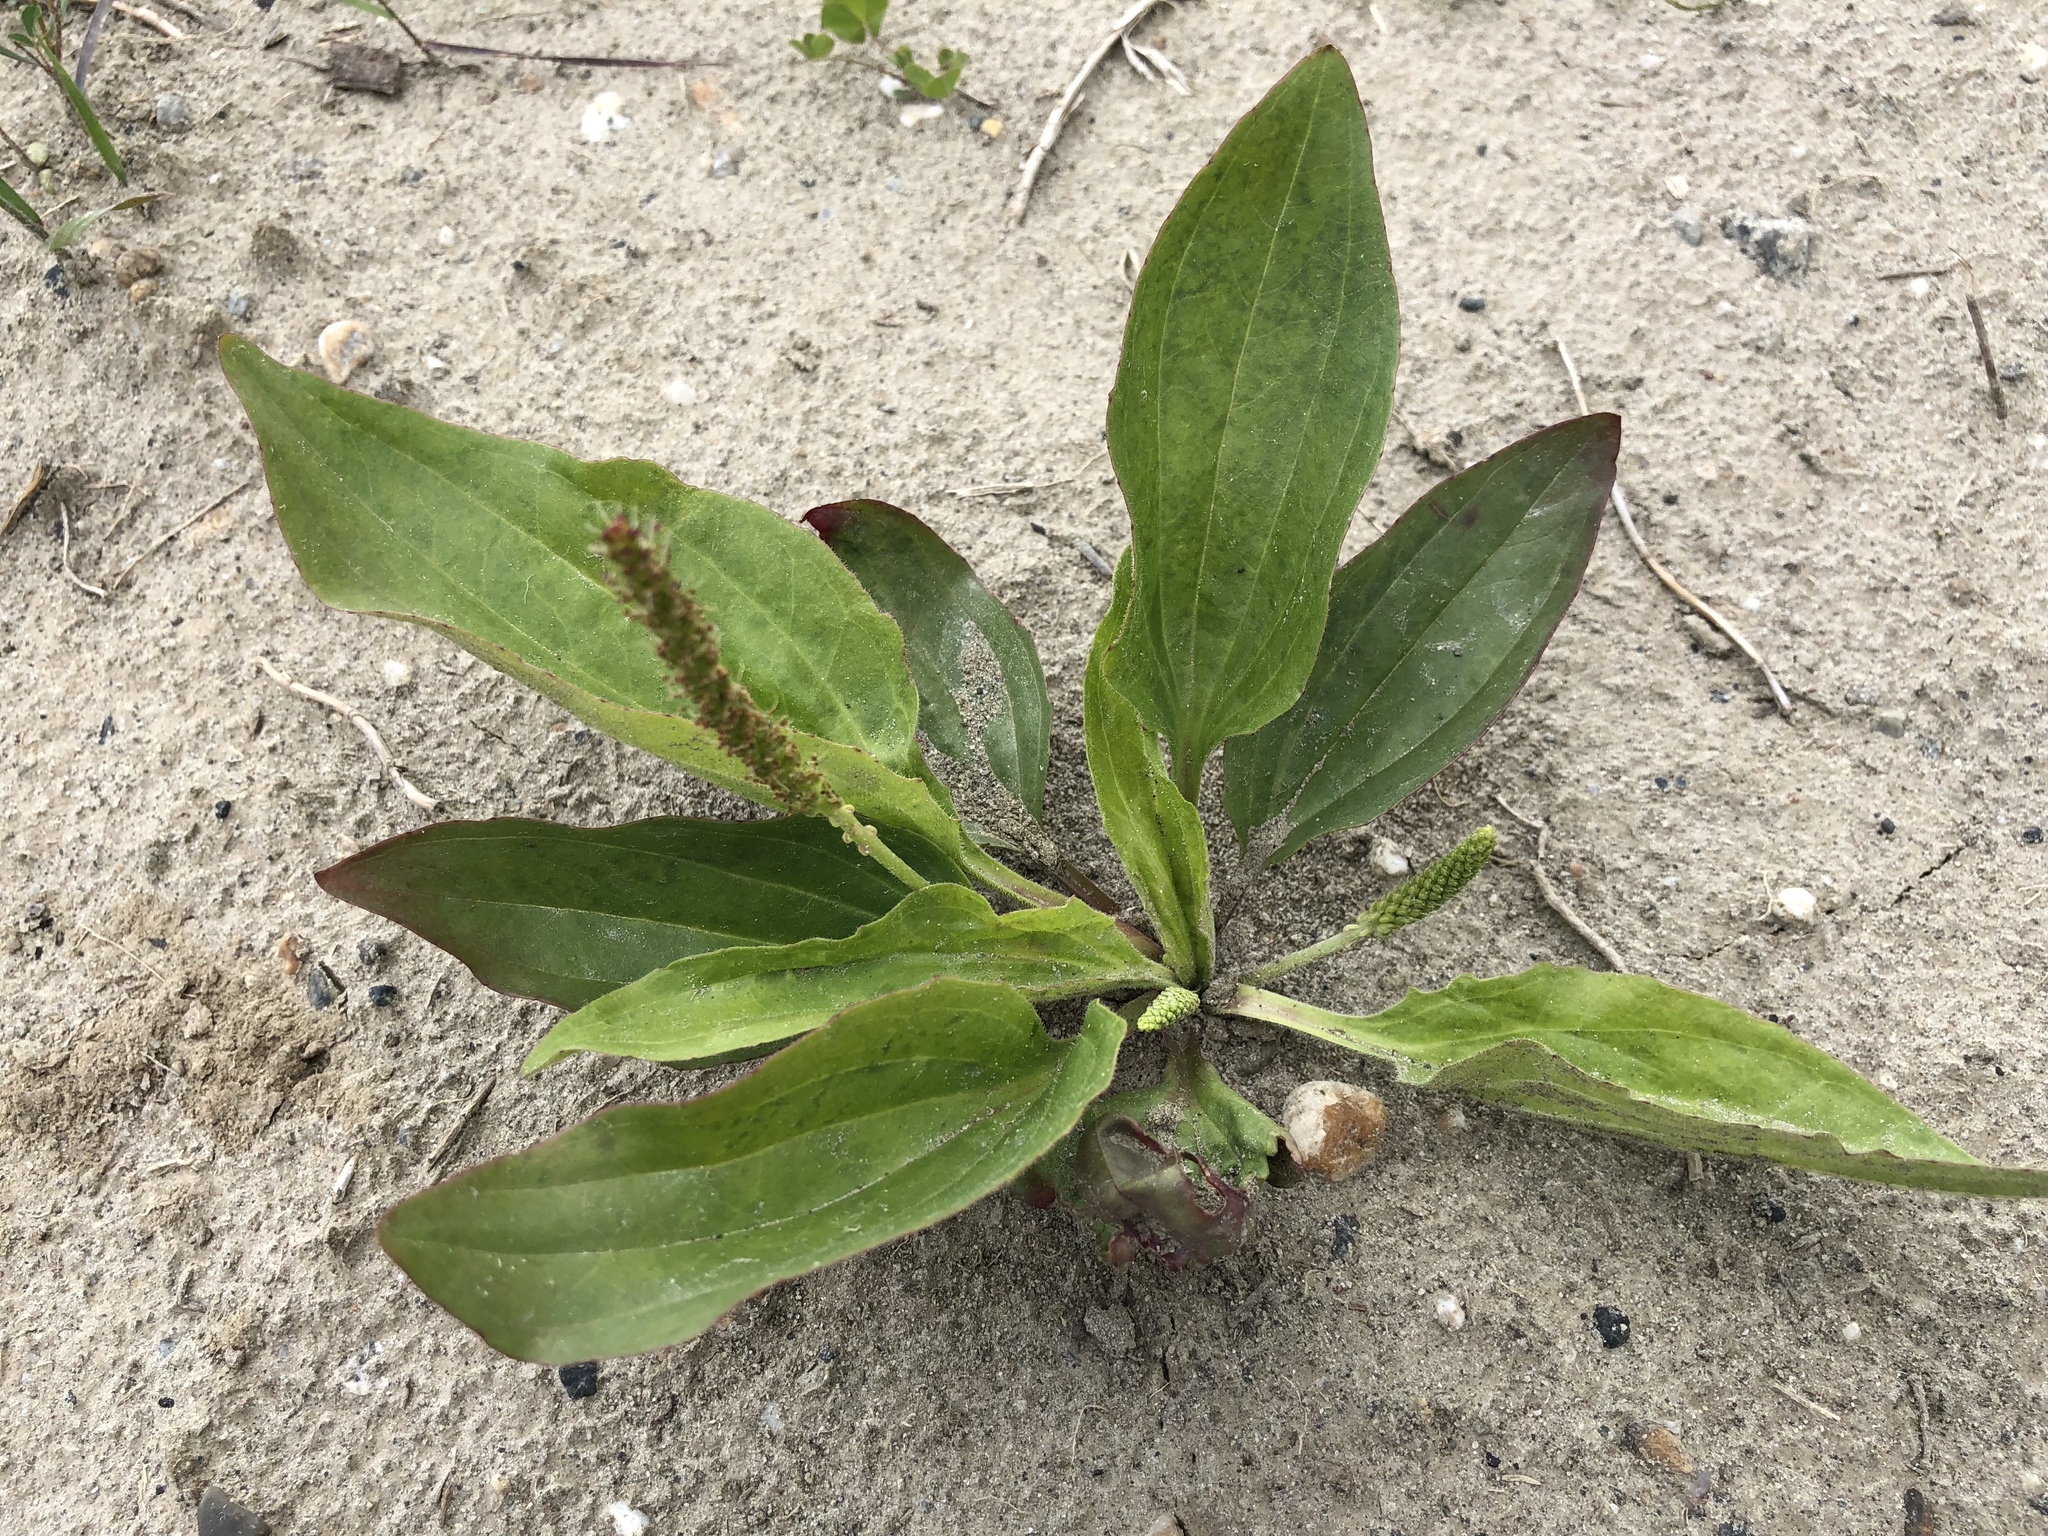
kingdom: Plantae
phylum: Tracheophyta
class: Magnoliopsida
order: Lamiales
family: Plantaginaceae
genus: Plantago
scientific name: Plantago major
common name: Common plantain
